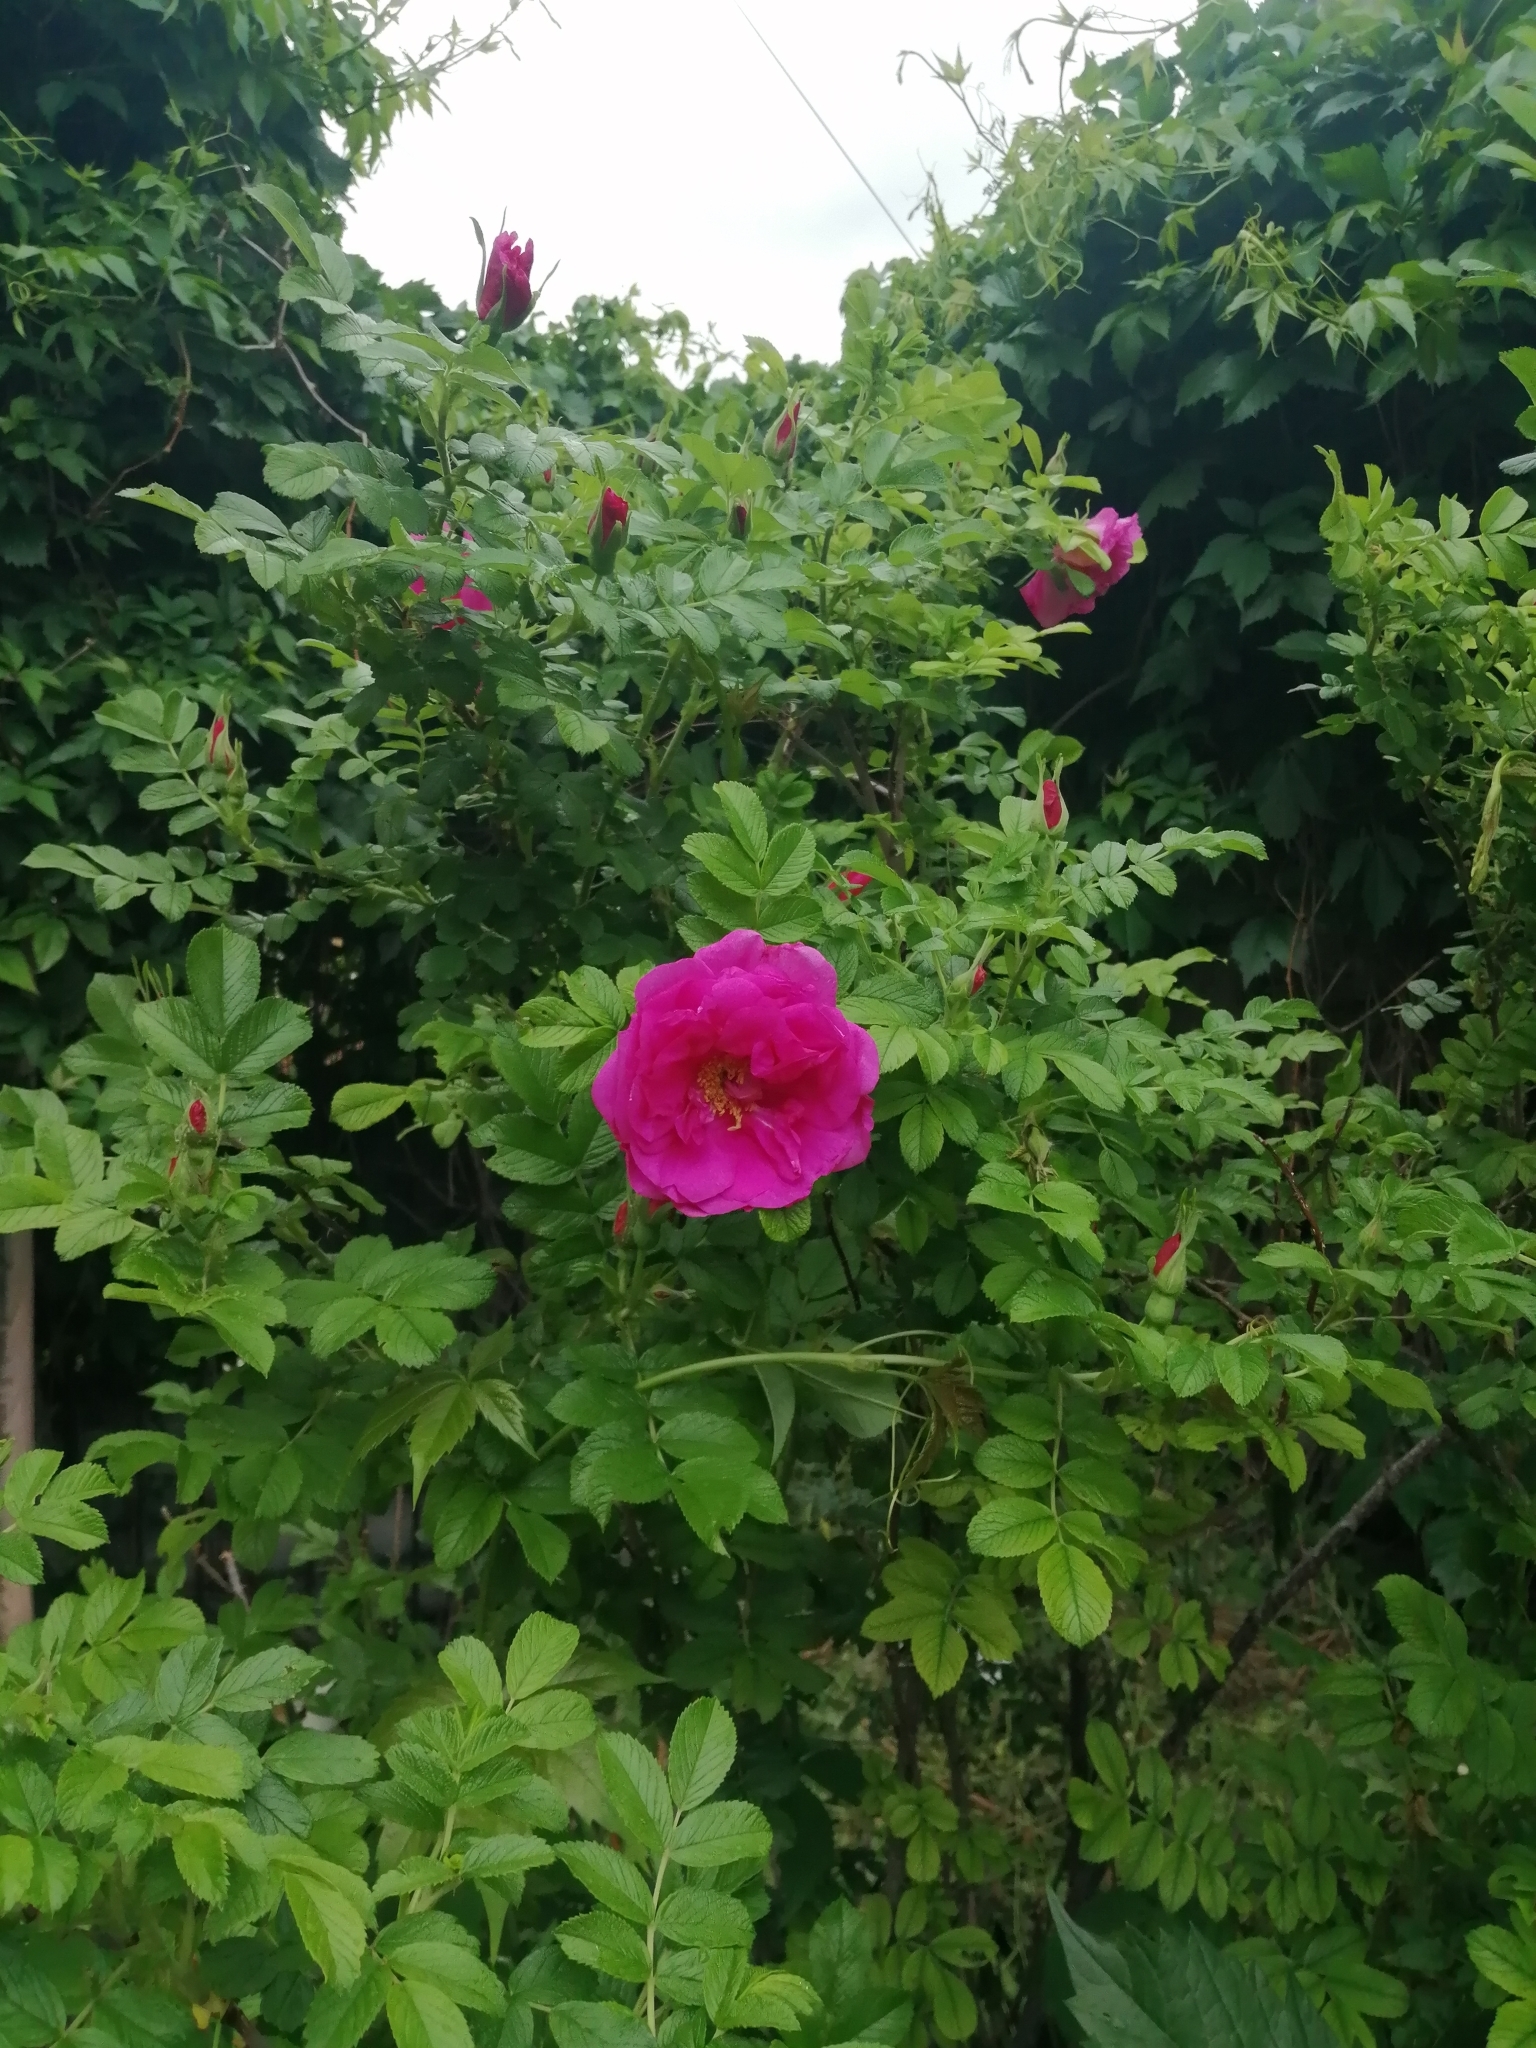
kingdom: Plantae
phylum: Tracheophyta
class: Magnoliopsida
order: Rosales
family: Rosaceae
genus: Rosa
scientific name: Rosa rugosa
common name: Japanese rose
